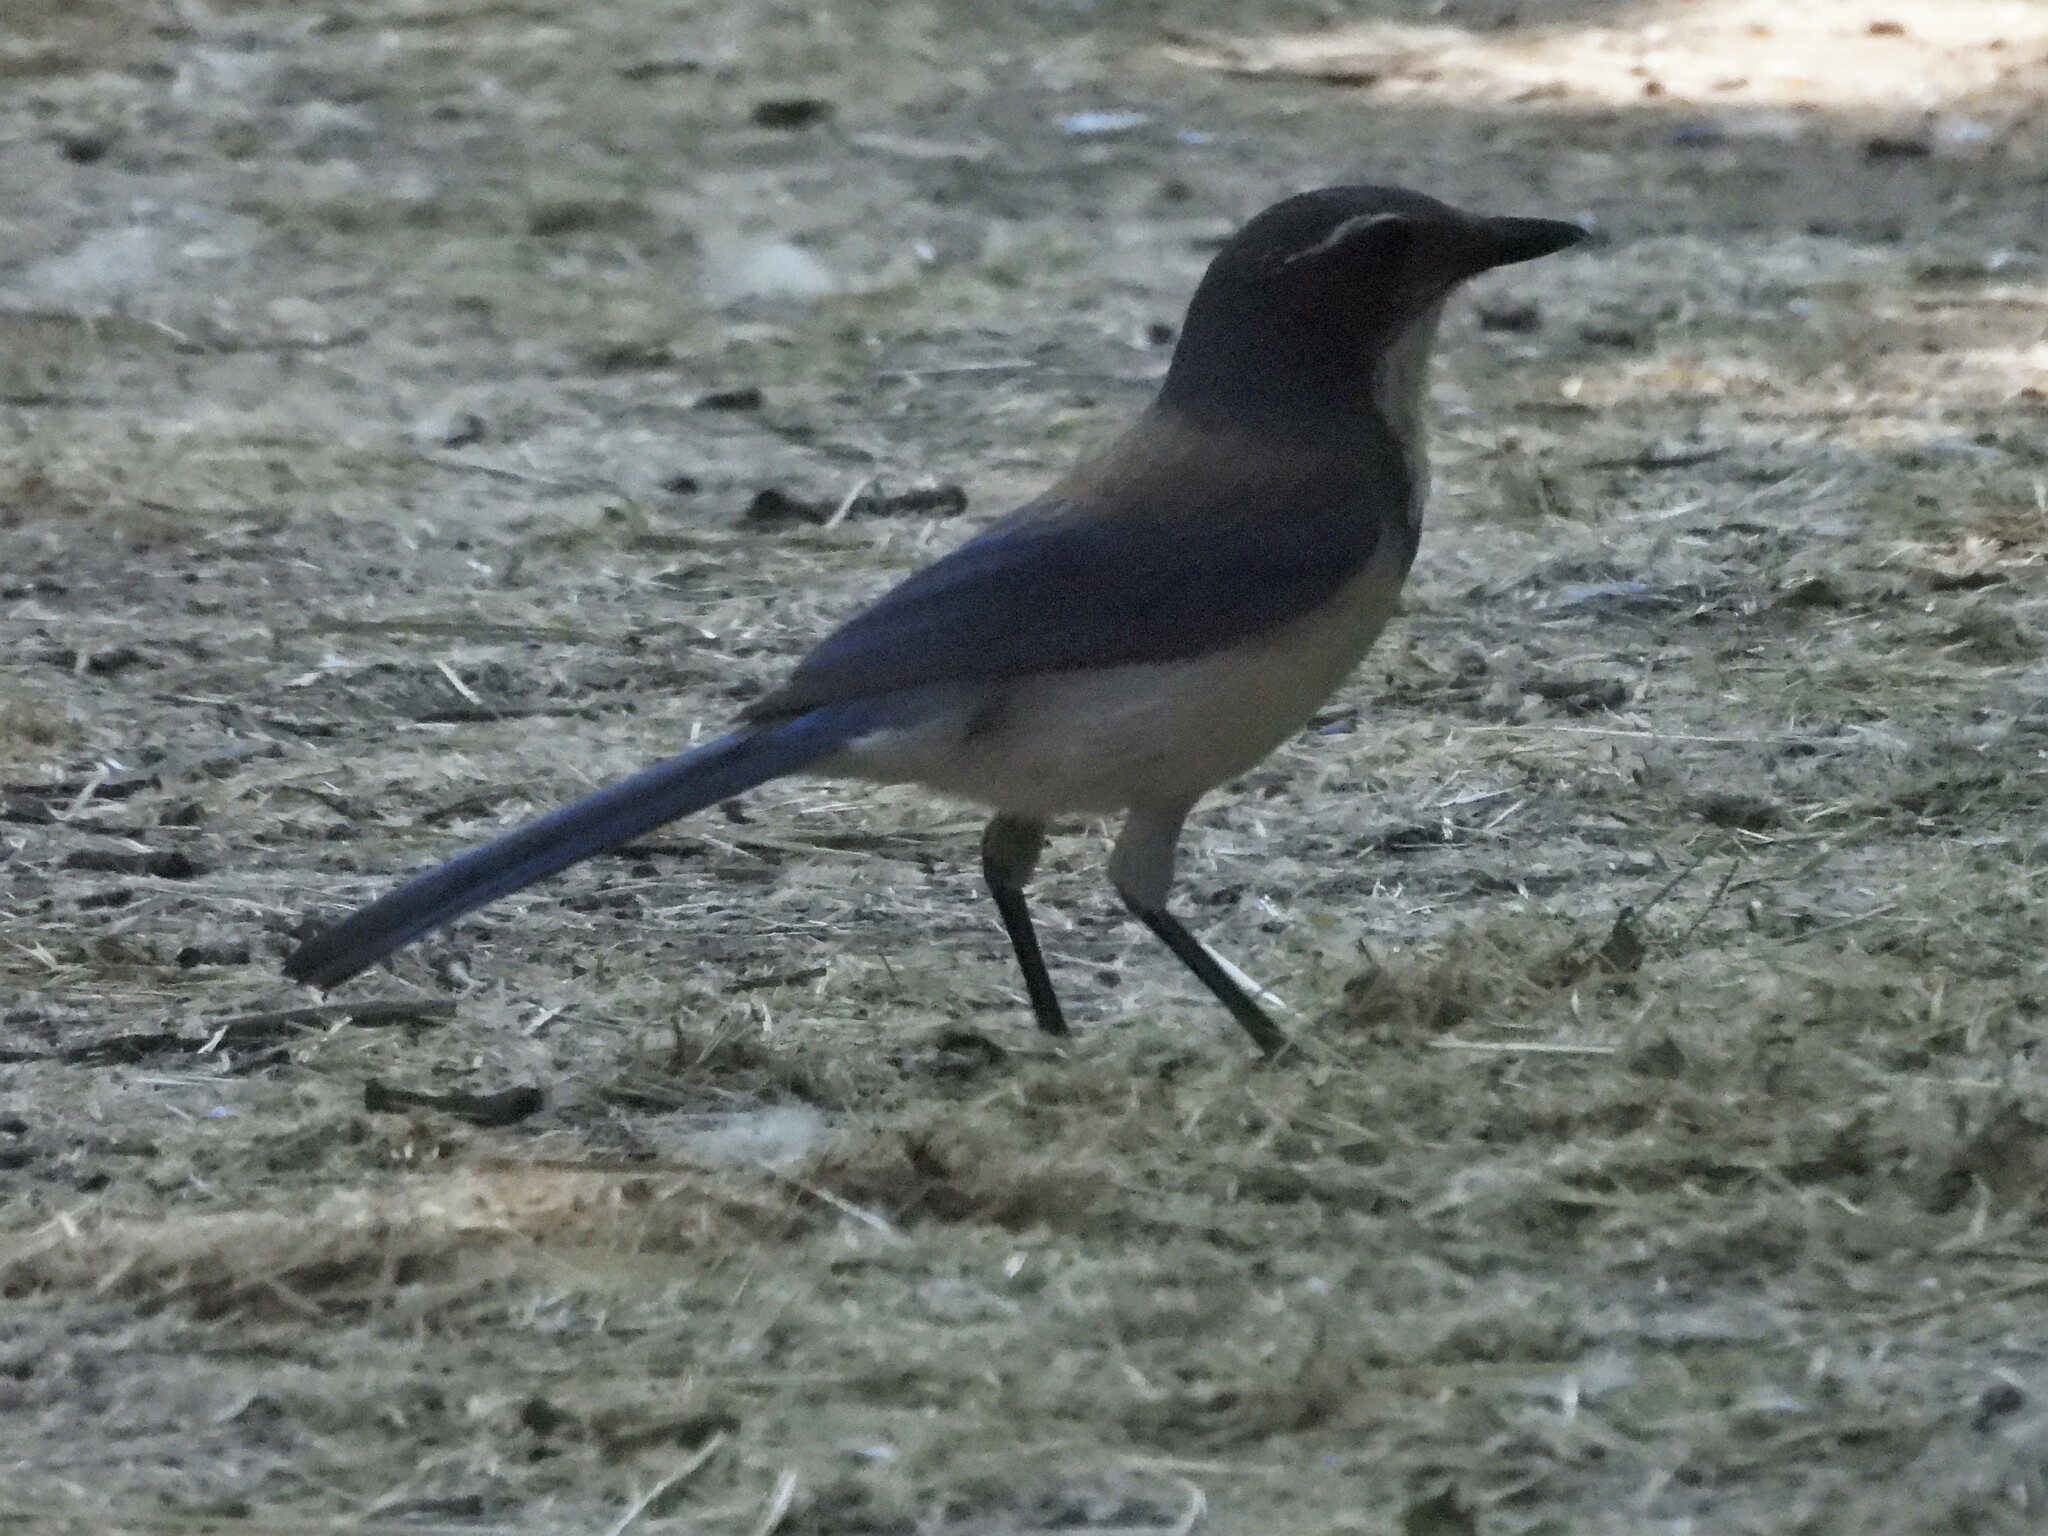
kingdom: Animalia
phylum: Chordata
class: Aves
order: Passeriformes
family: Corvidae
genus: Aphelocoma
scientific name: Aphelocoma californica
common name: California scrub-jay
